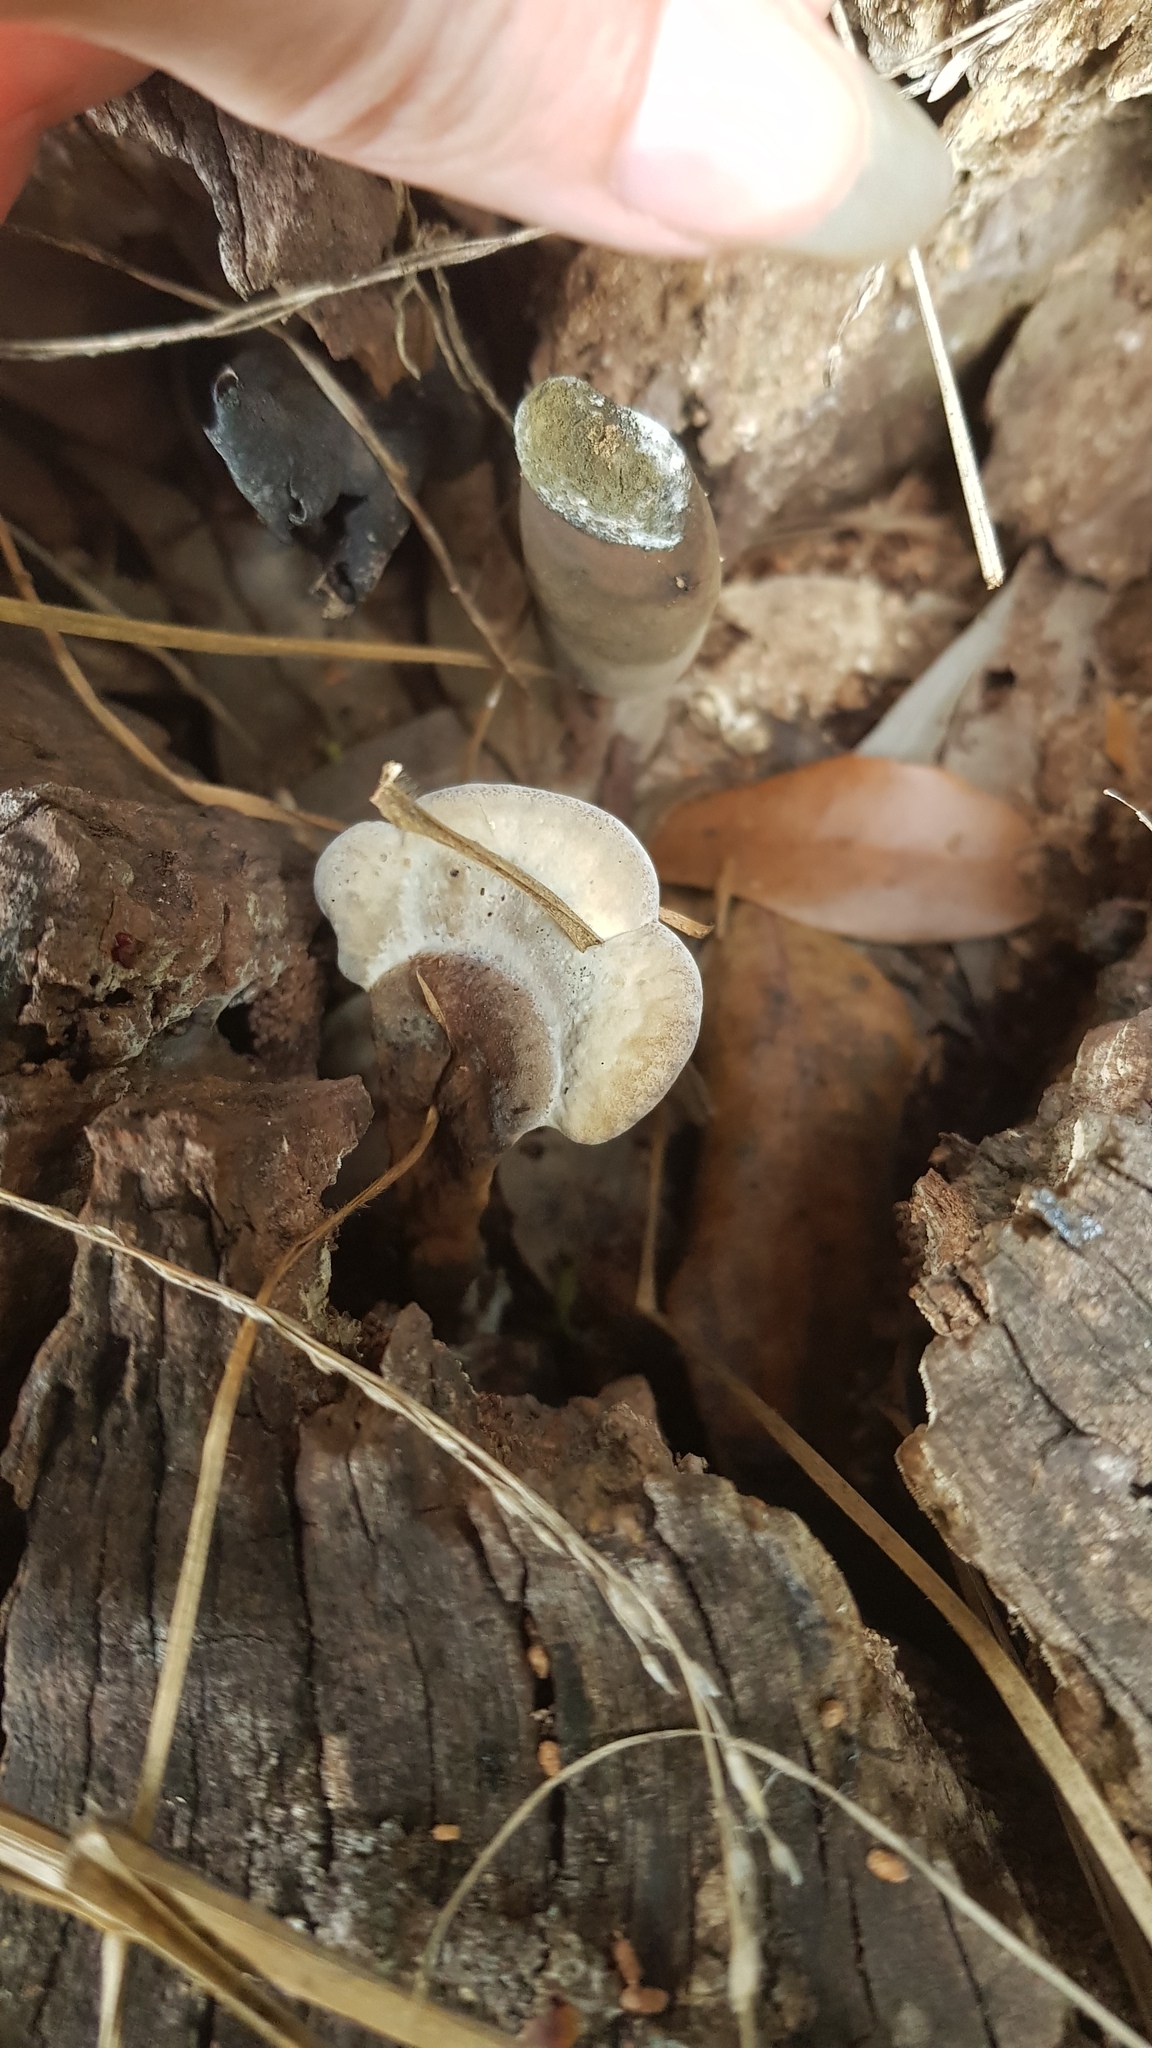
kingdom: Fungi
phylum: Basidiomycota
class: Agaricomycetes
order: Polyporales
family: Ganodermataceae
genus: Sanguinoderma
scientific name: Sanguinoderma rude
